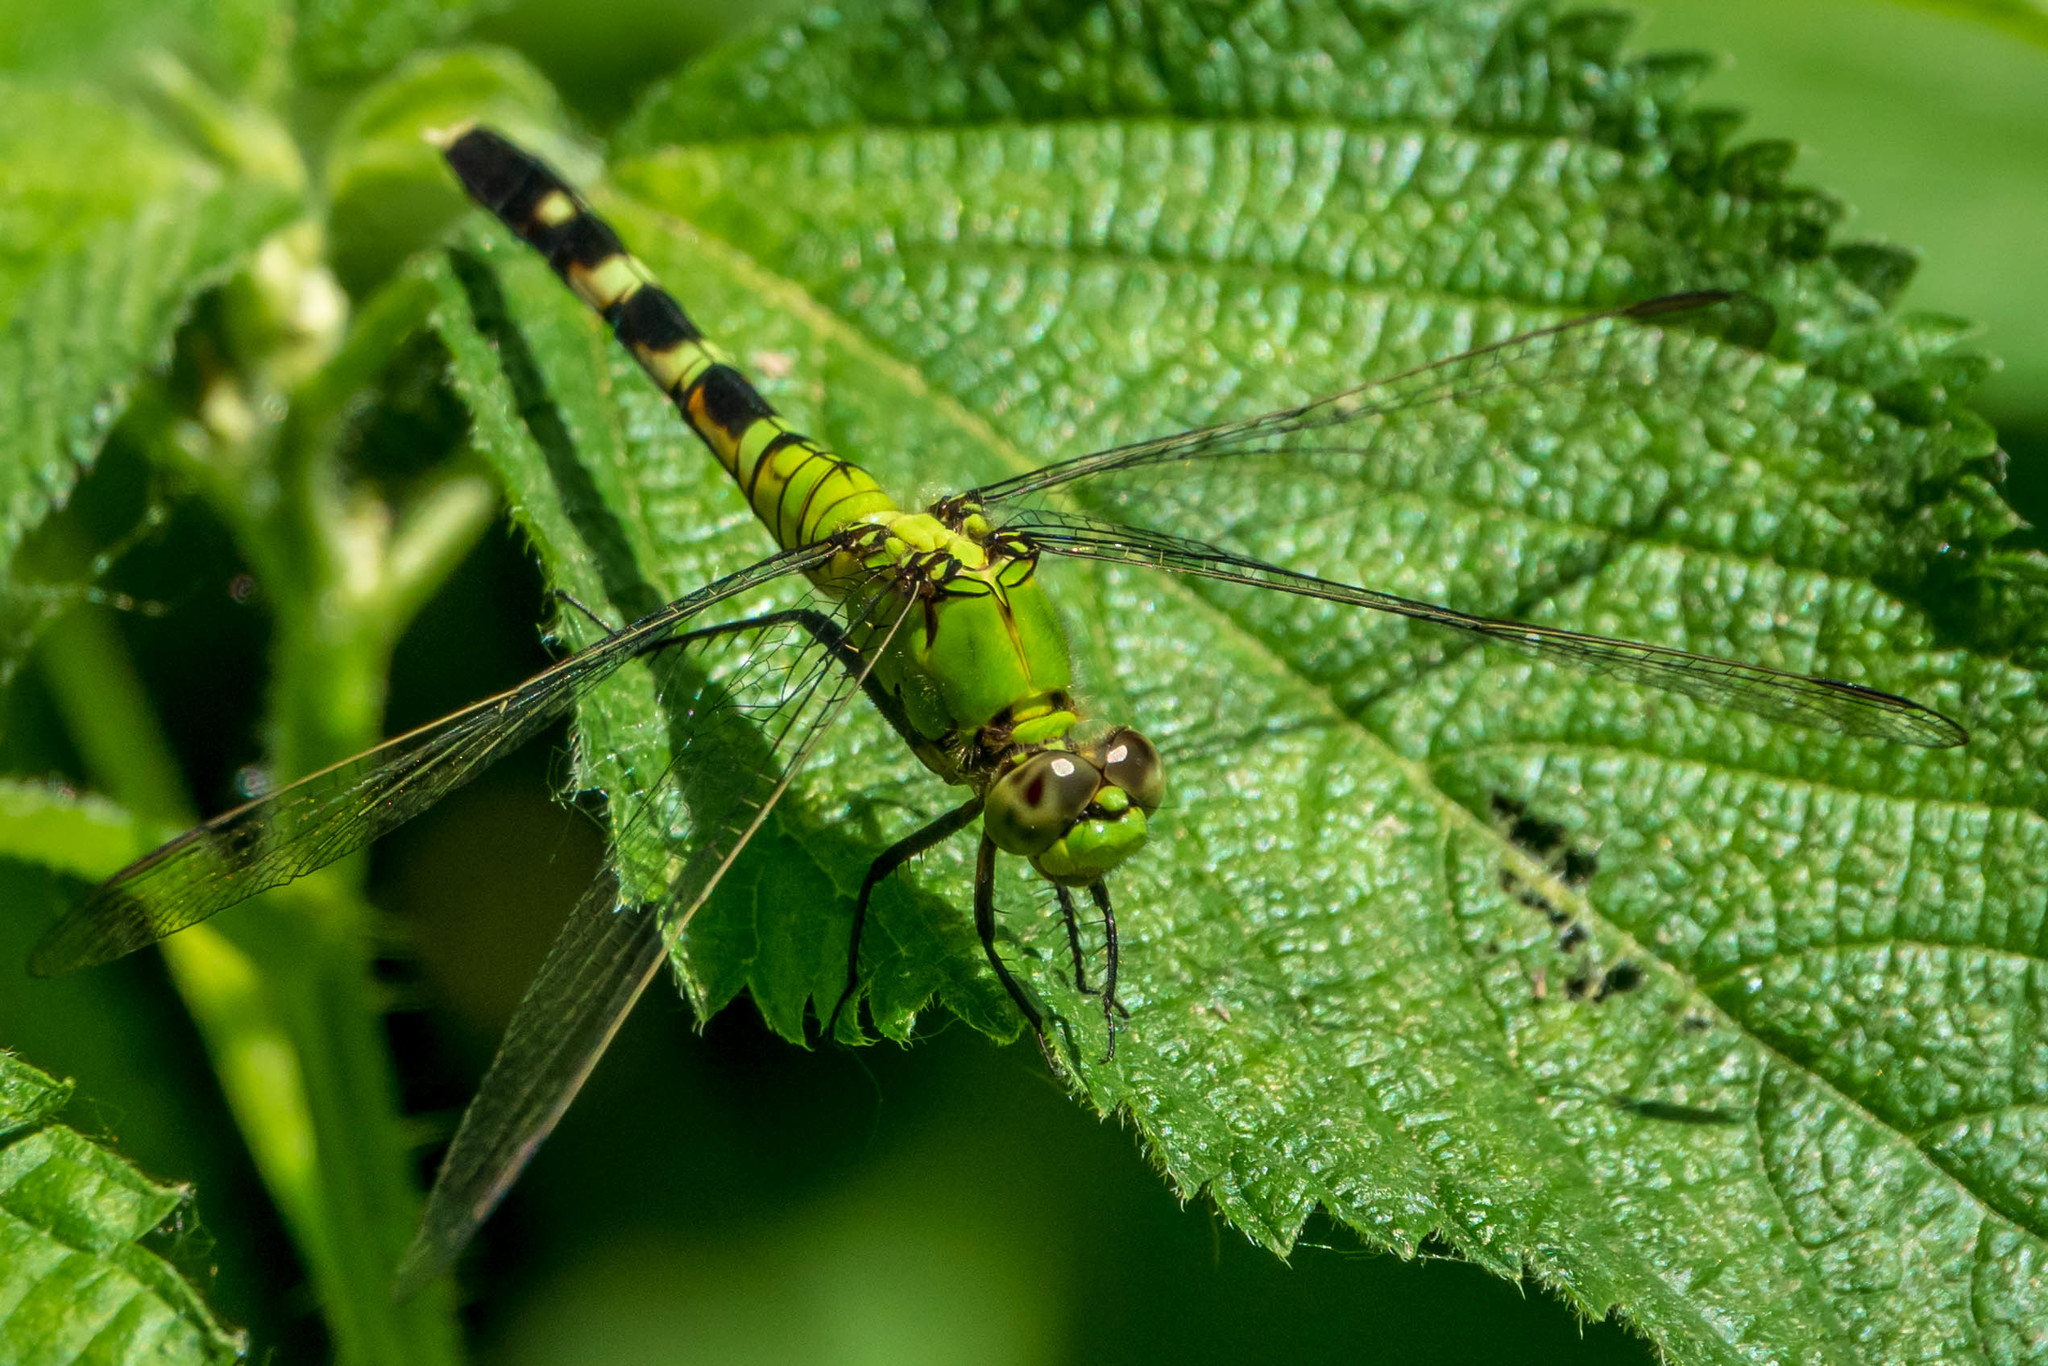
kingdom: Animalia
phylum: Arthropoda
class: Insecta
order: Odonata
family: Libellulidae
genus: Erythemis
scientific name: Erythemis simplicicollis
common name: Eastern pondhawk
